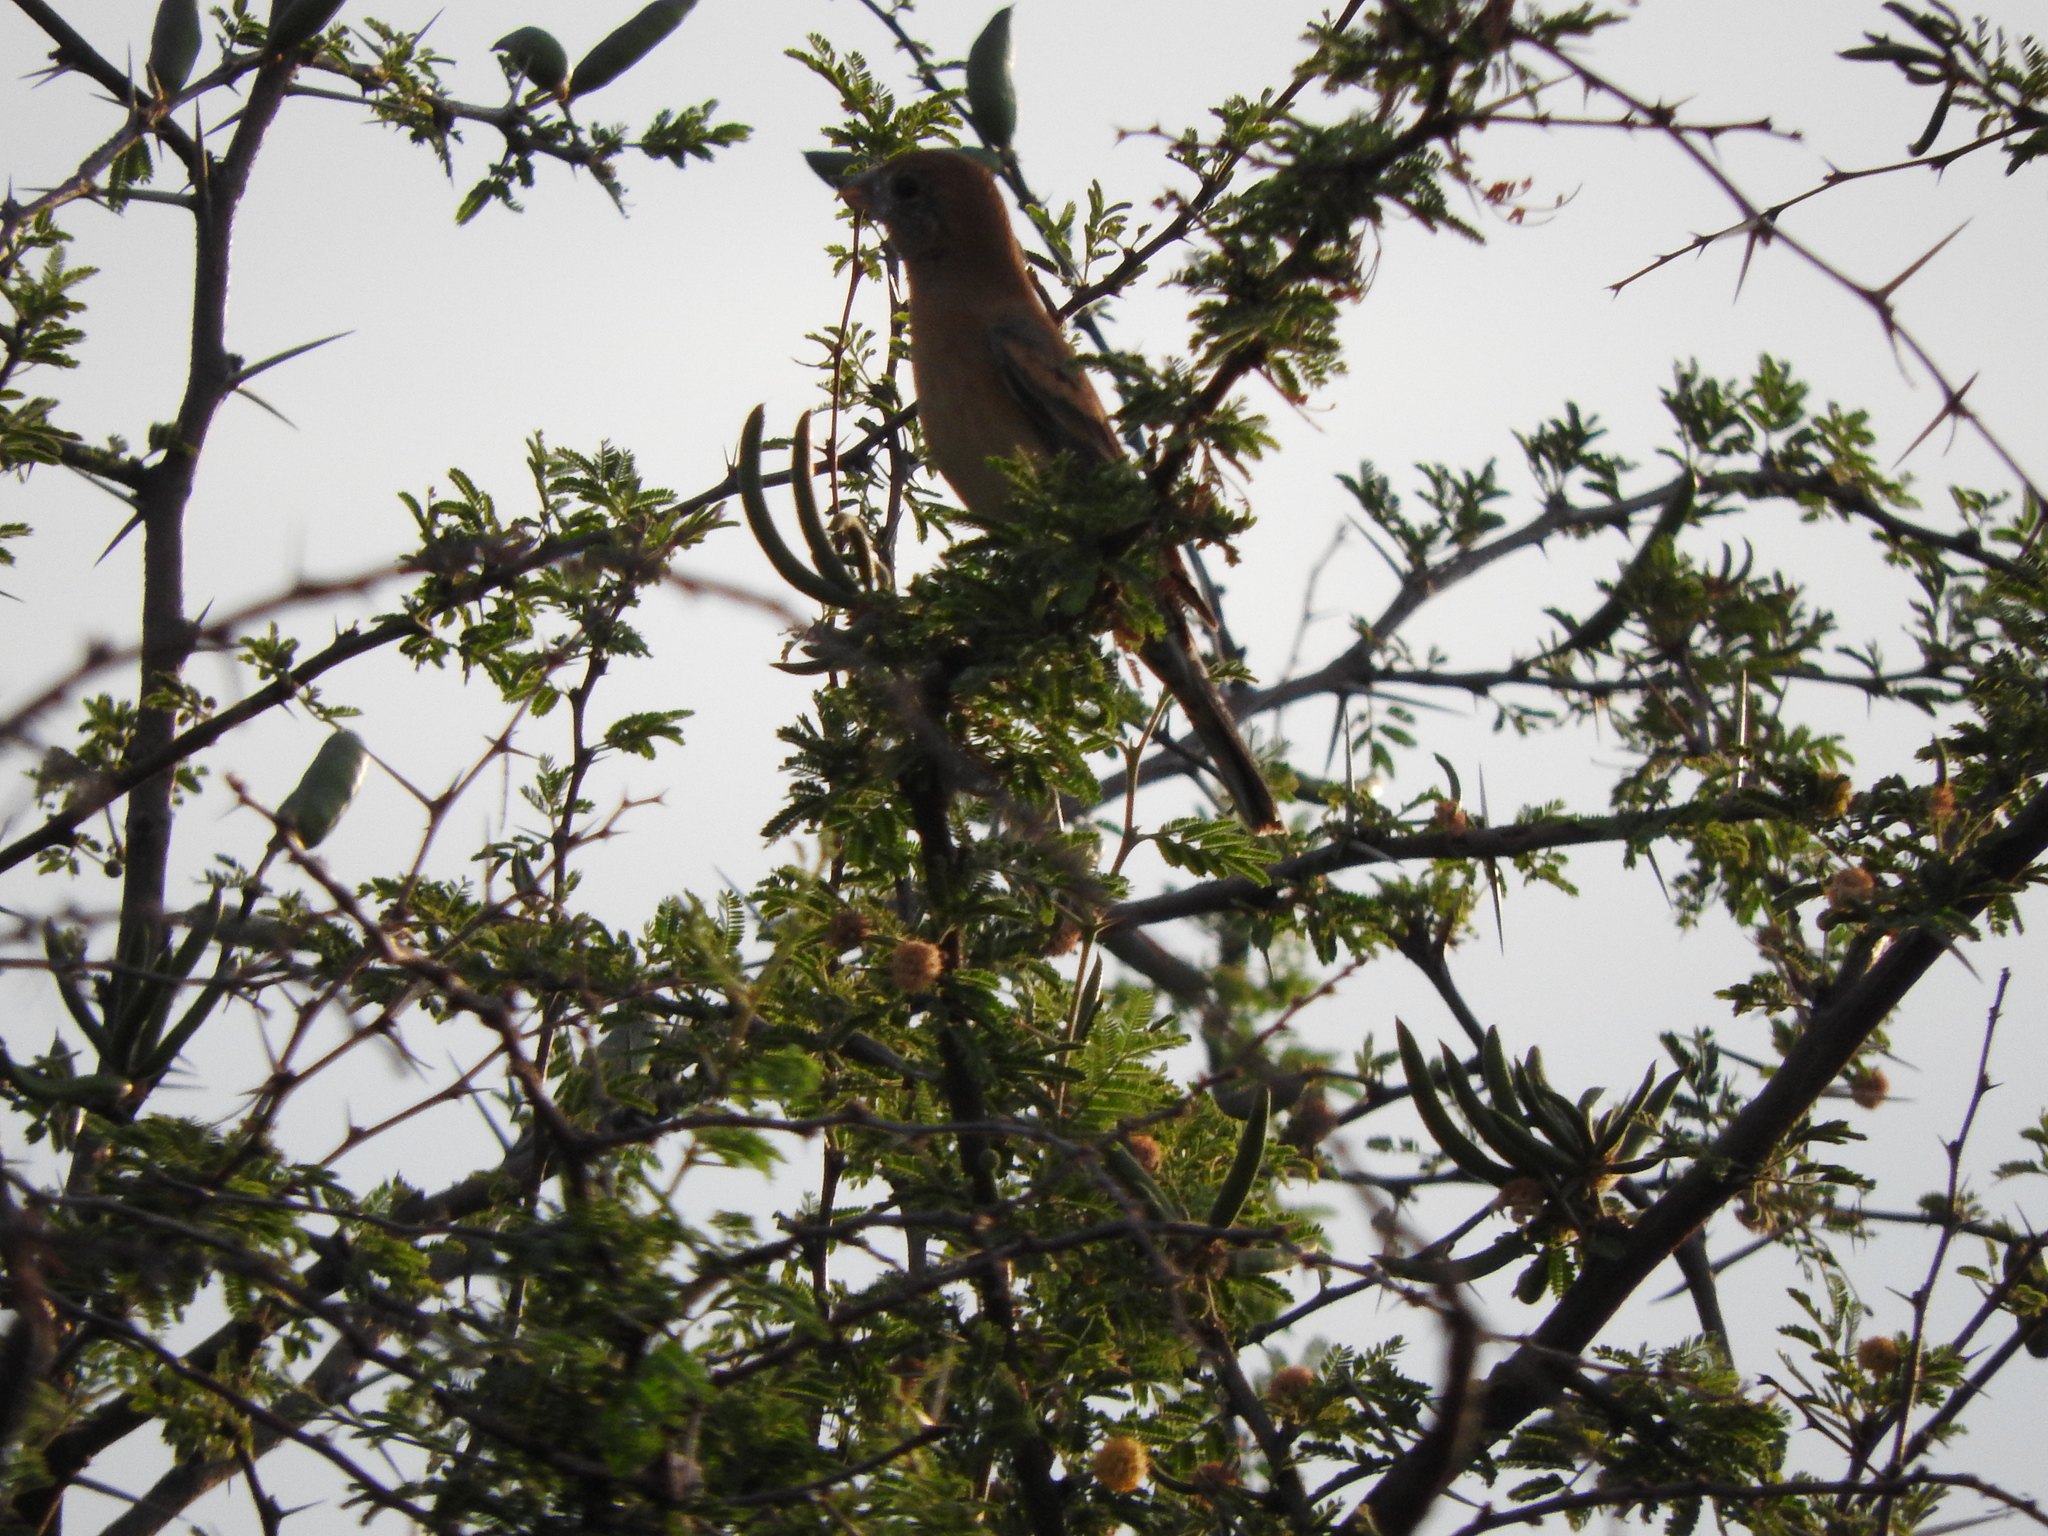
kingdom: Animalia
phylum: Chordata
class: Aves
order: Passeriformes
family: Cardinalidae
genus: Passerina
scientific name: Passerina caerulea
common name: Blue grosbeak
